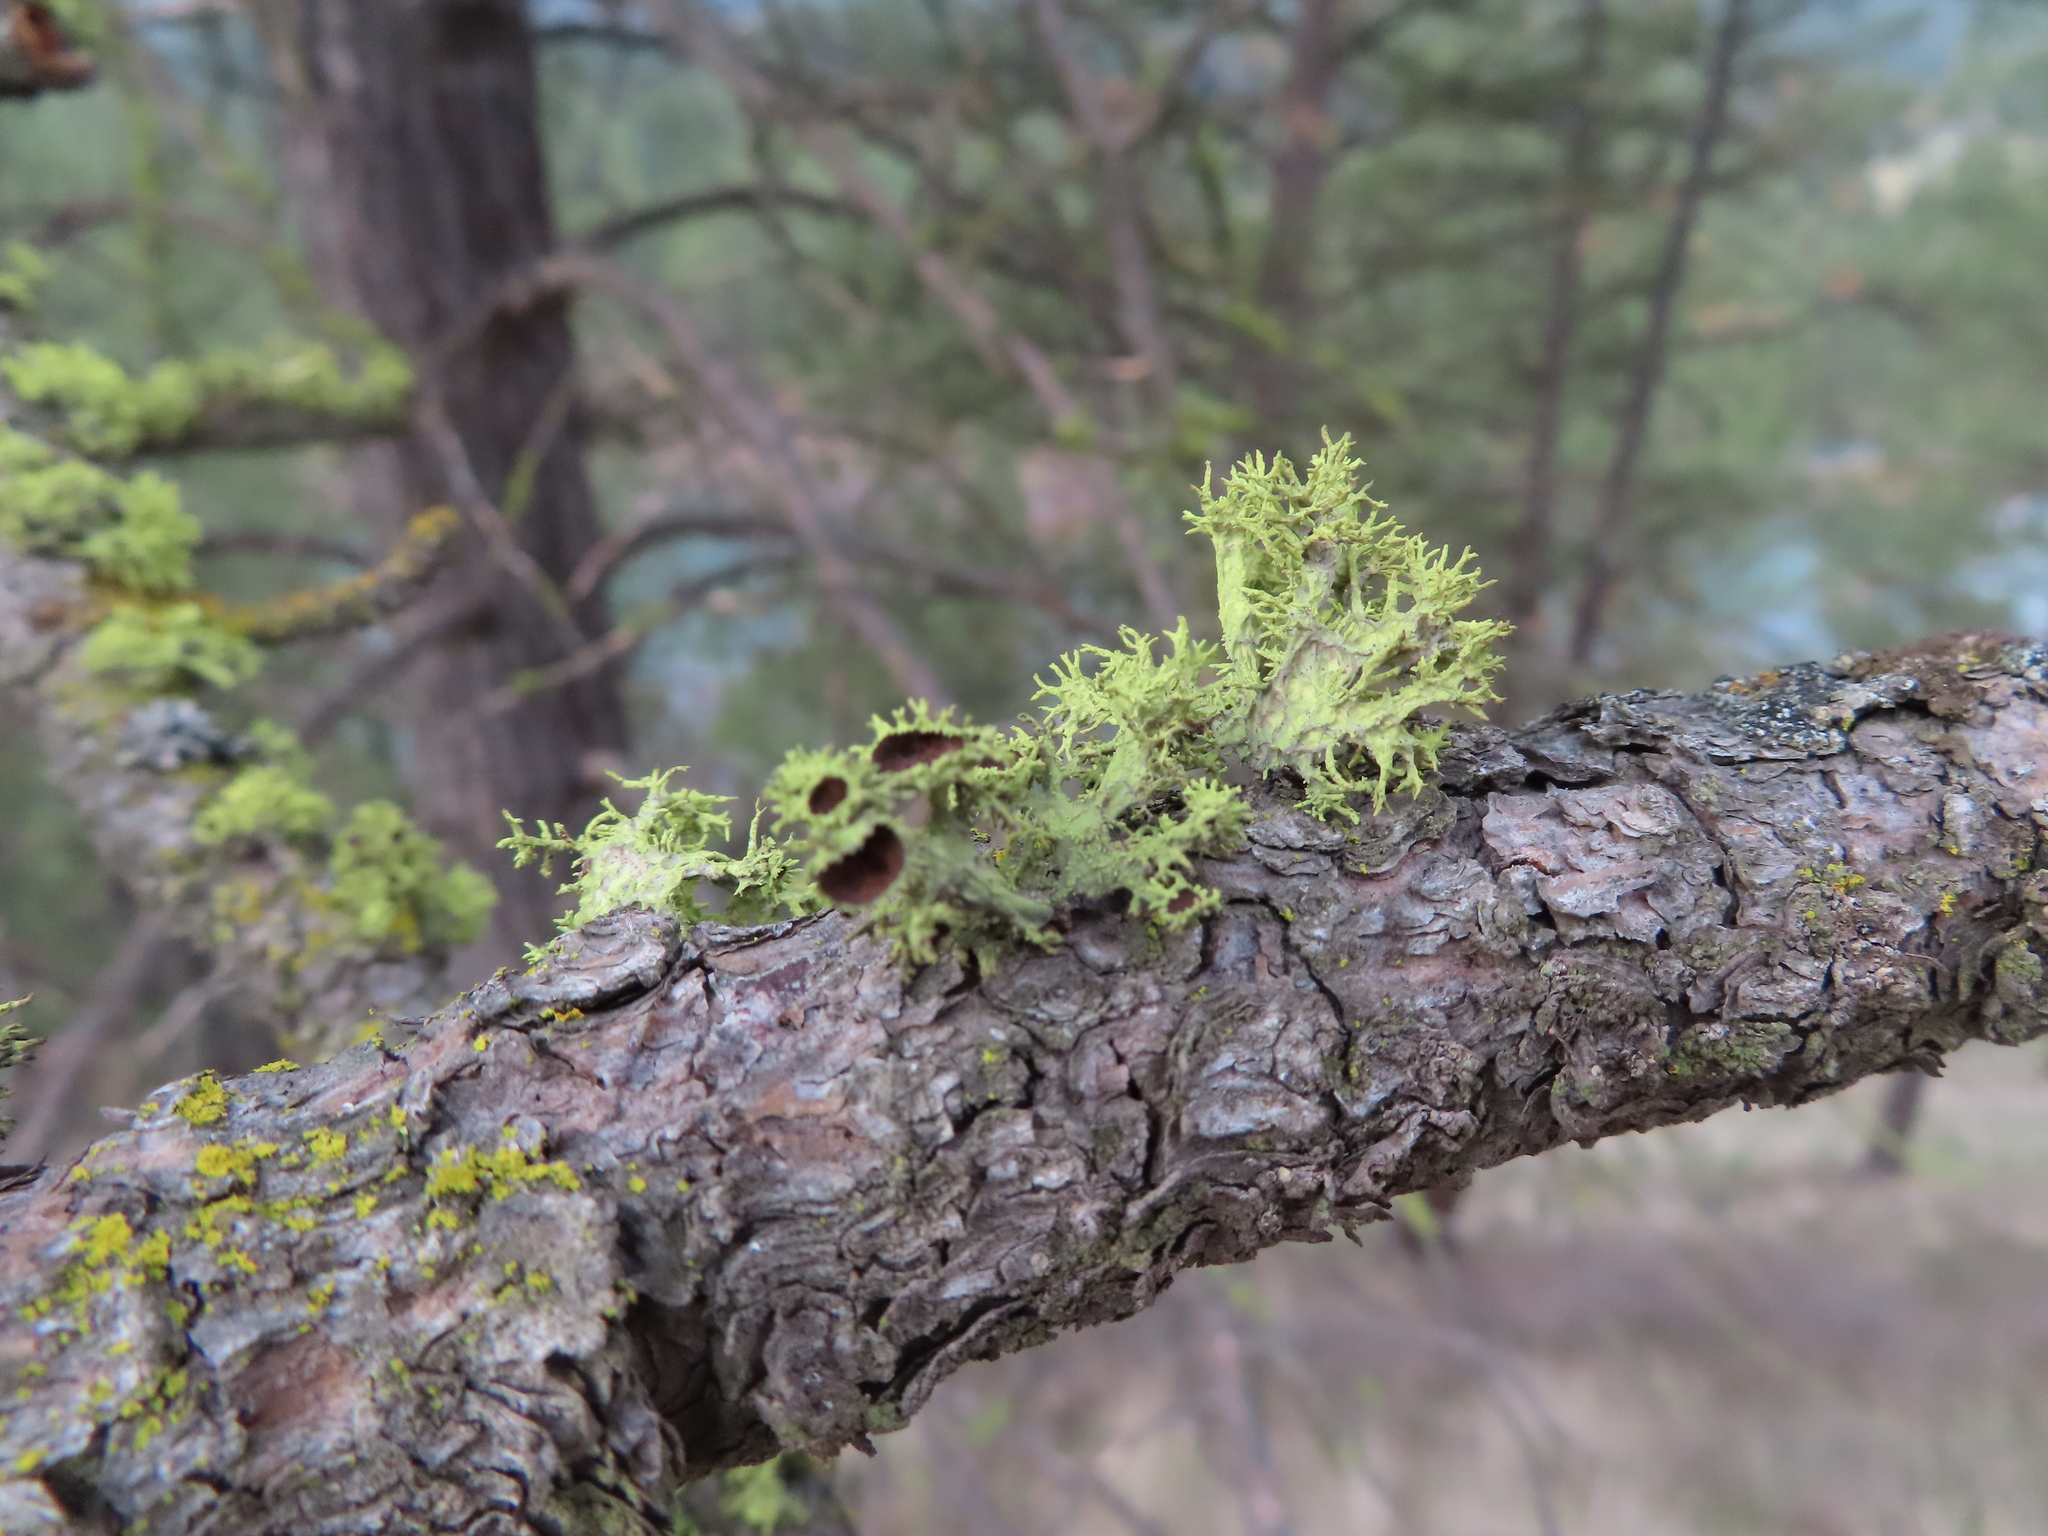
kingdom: Fungi
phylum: Ascomycota
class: Lecanoromycetes
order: Lecanorales
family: Parmeliaceae
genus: Letharia
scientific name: Letharia columbiana
